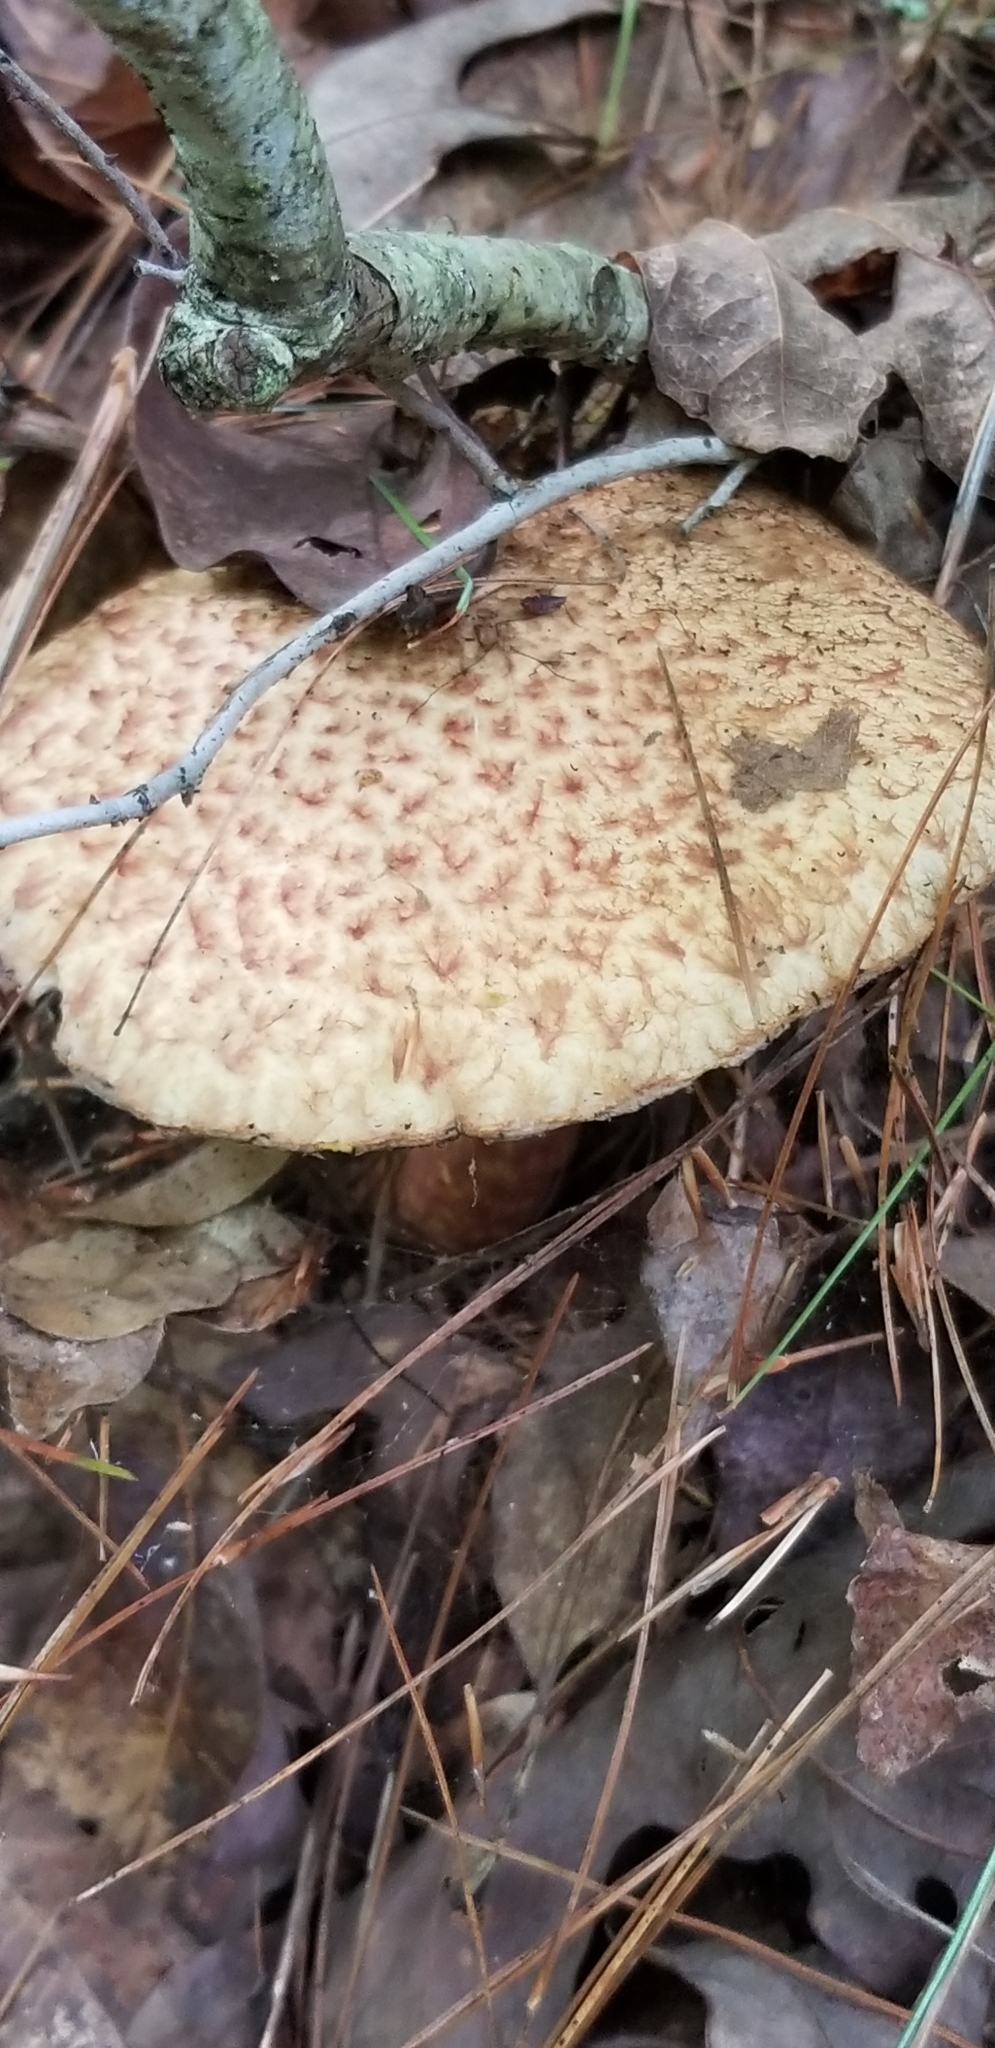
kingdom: Fungi
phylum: Basidiomycota
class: Agaricomycetes
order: Boletales
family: Suillaceae
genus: Suillus
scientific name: Suillus spraguei
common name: Painted suillus
